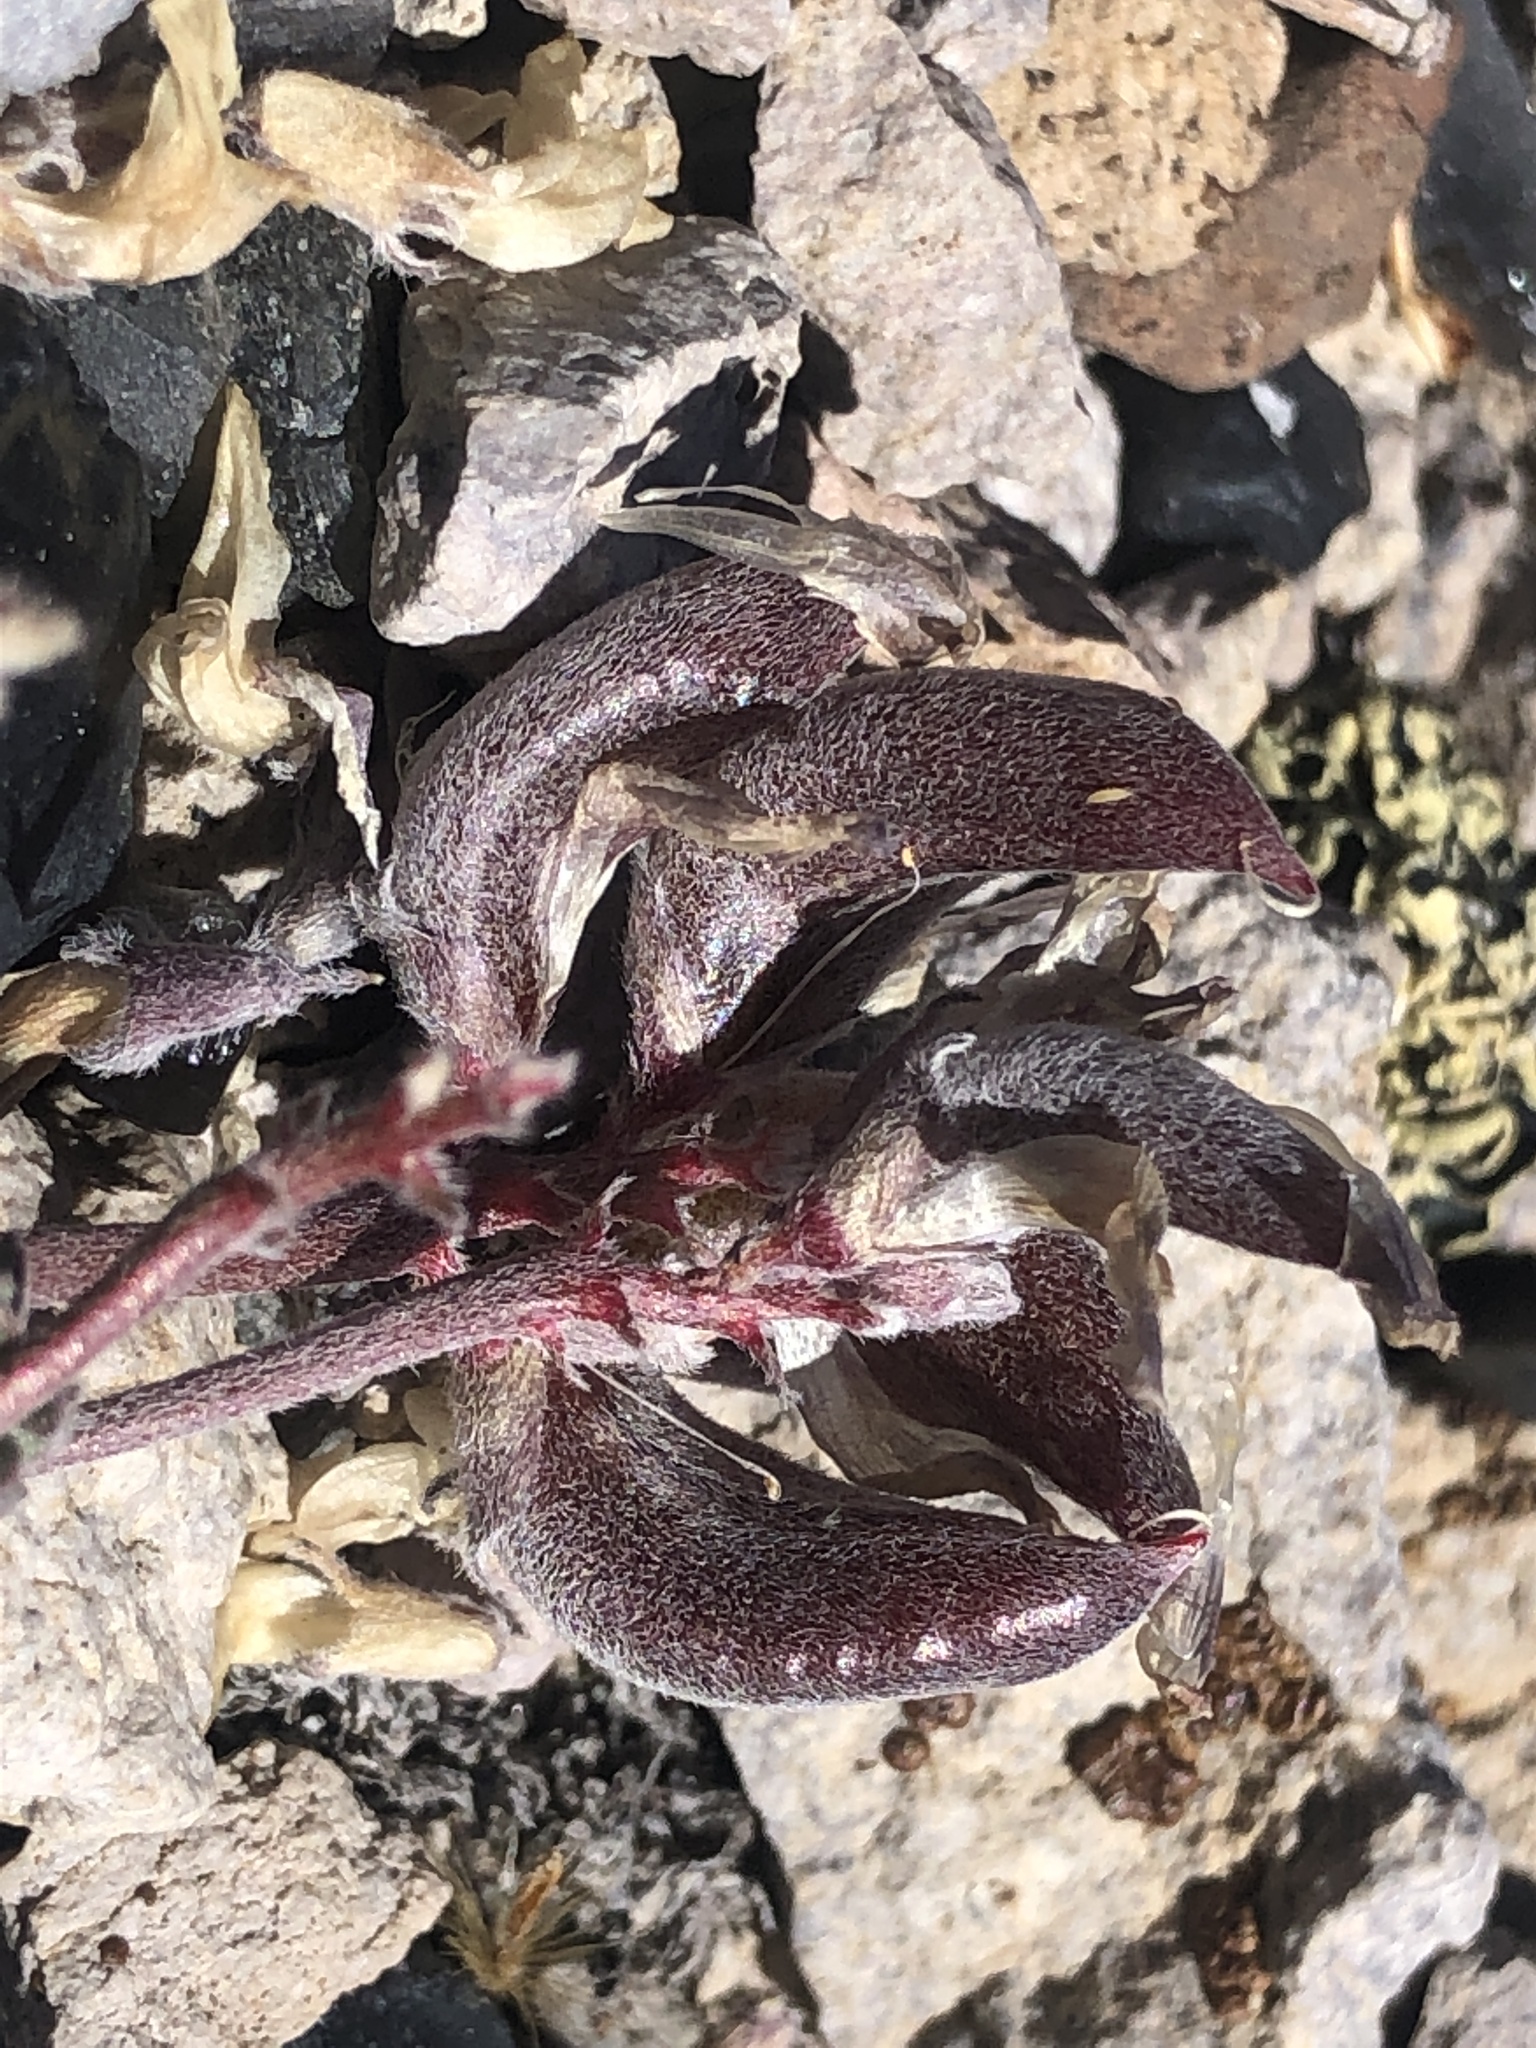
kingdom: Plantae
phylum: Tracheophyta
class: Magnoliopsida
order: Fabales
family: Fabaceae
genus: Astragalus
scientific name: Astragalus monoensis
